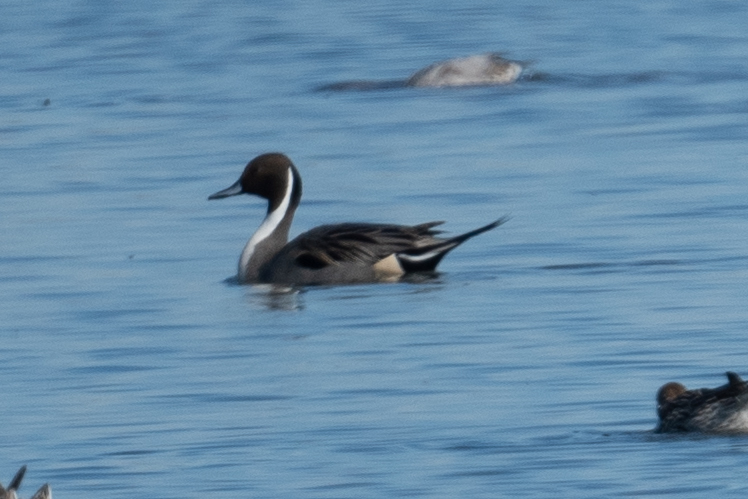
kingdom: Animalia
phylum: Chordata
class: Aves
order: Anseriformes
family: Anatidae
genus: Anas
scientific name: Anas acuta
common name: Northern pintail
